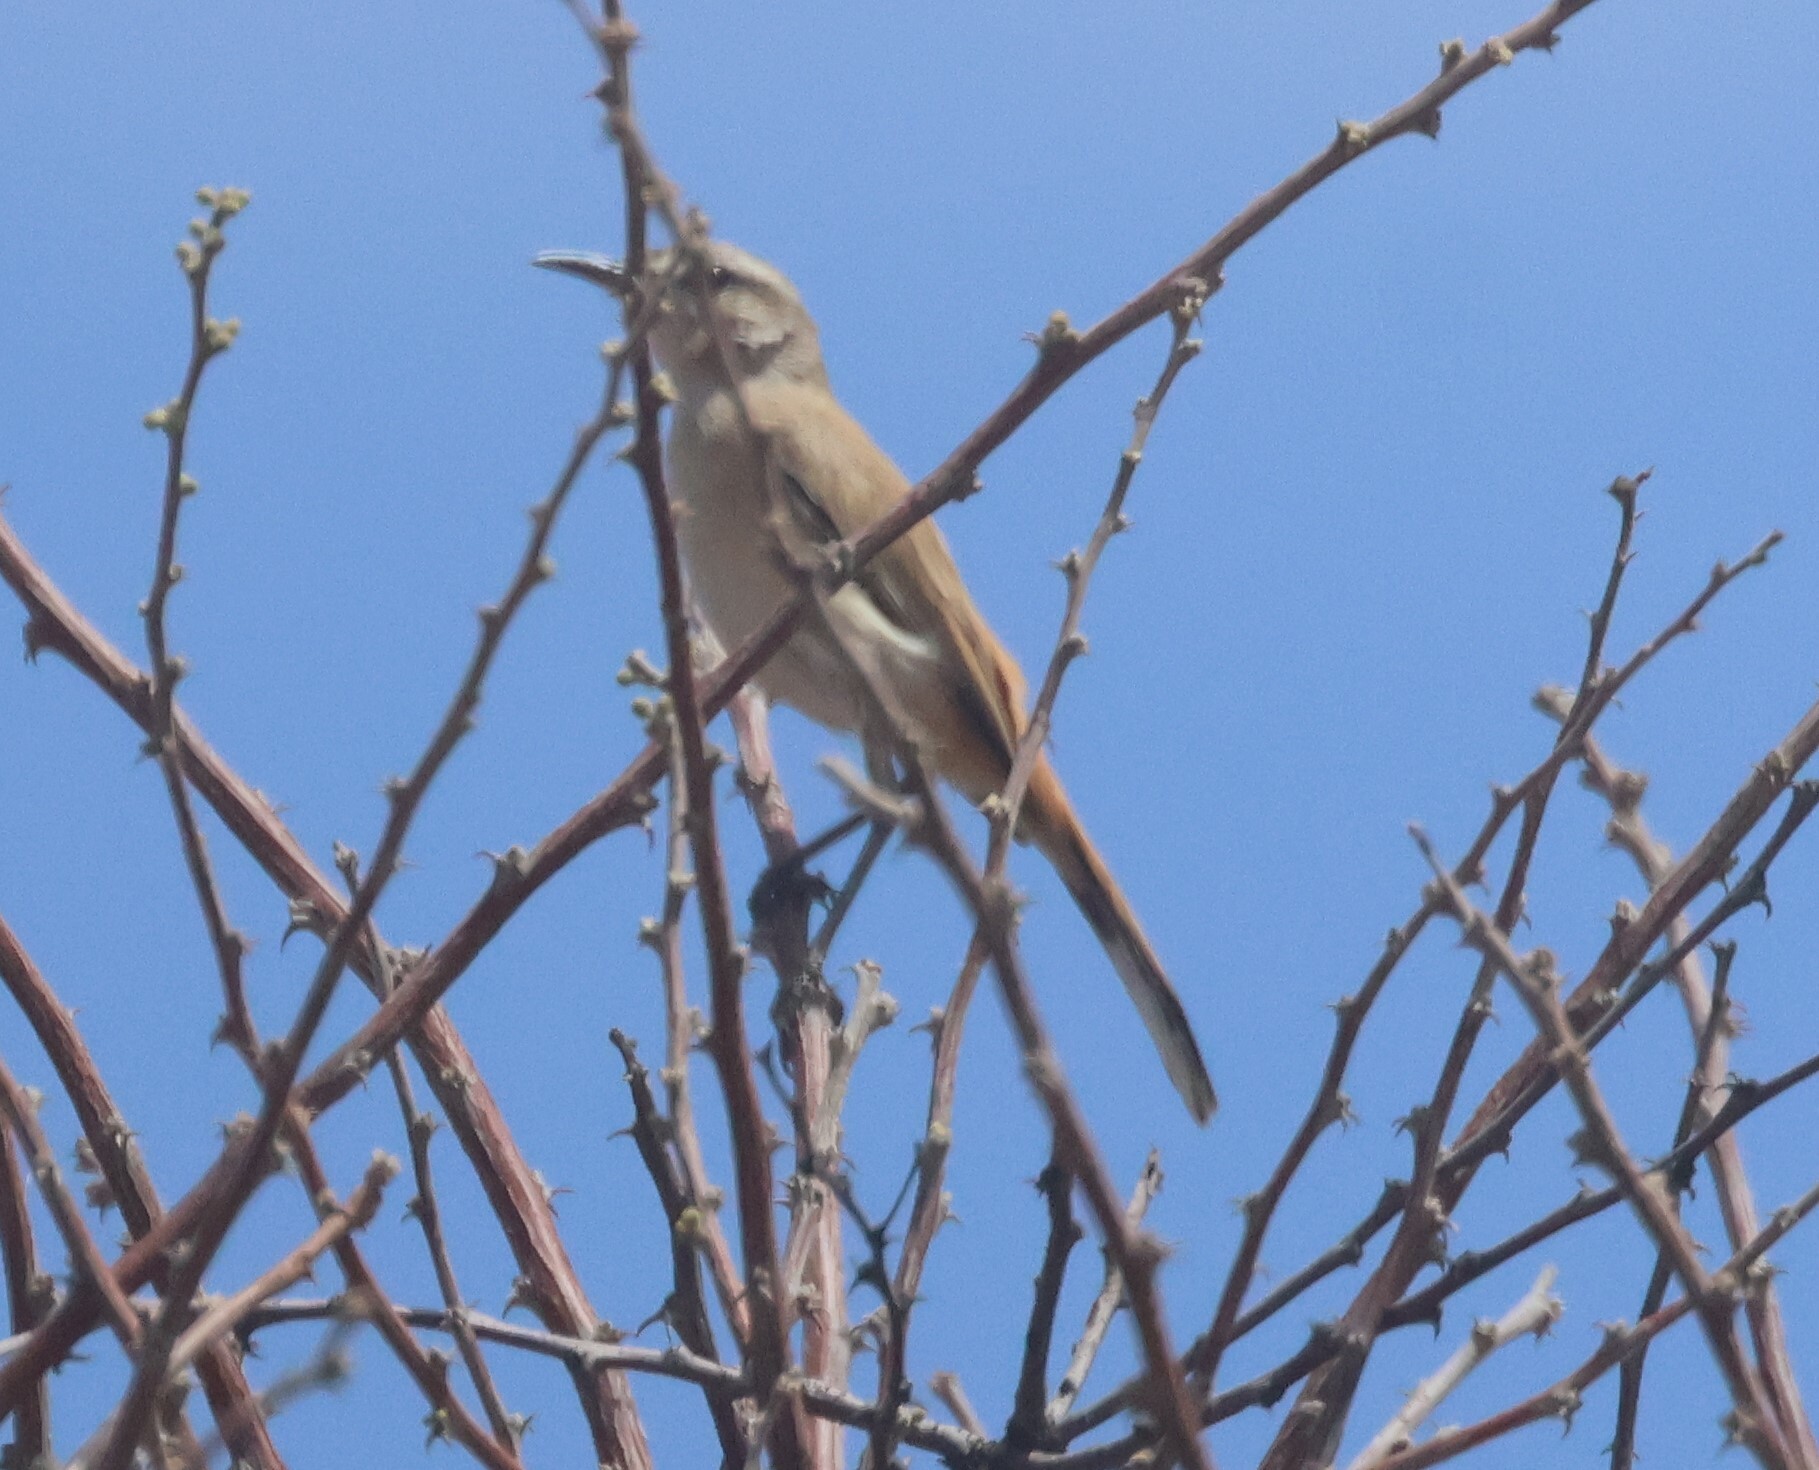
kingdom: Animalia
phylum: Chordata
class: Aves
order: Passeriformes
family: Muscicapidae
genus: Erythropygia
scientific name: Erythropygia paena
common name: Kalahari scrub robin
